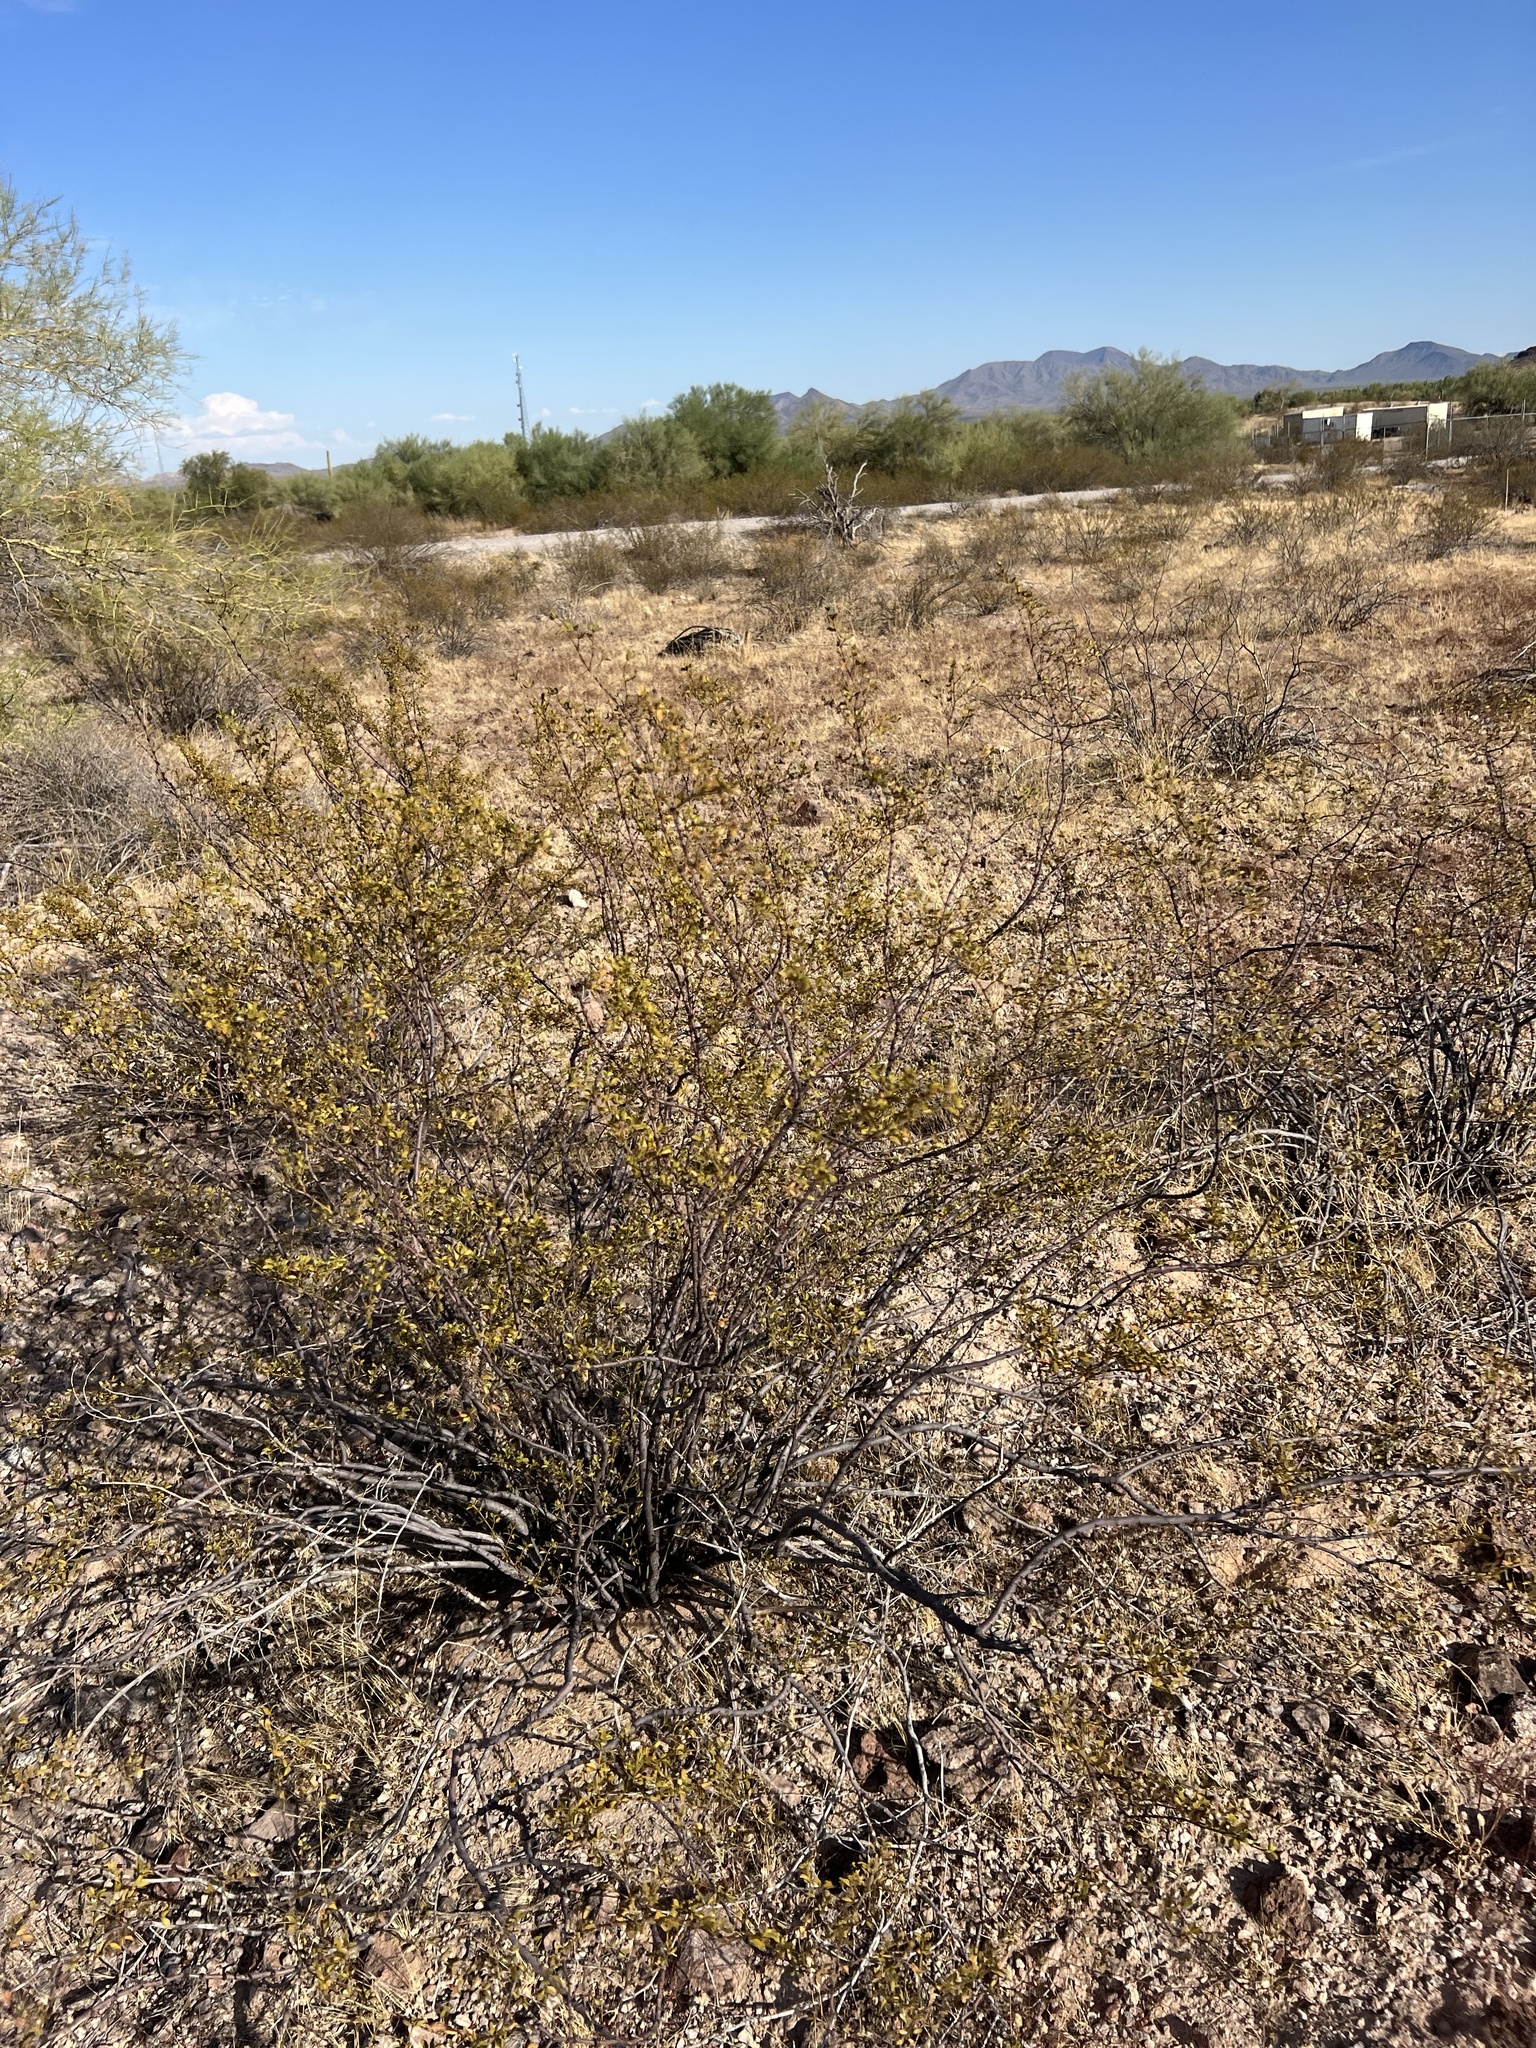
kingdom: Plantae
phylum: Tracheophyta
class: Magnoliopsida
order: Zygophyllales
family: Zygophyllaceae
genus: Larrea
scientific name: Larrea tridentata
